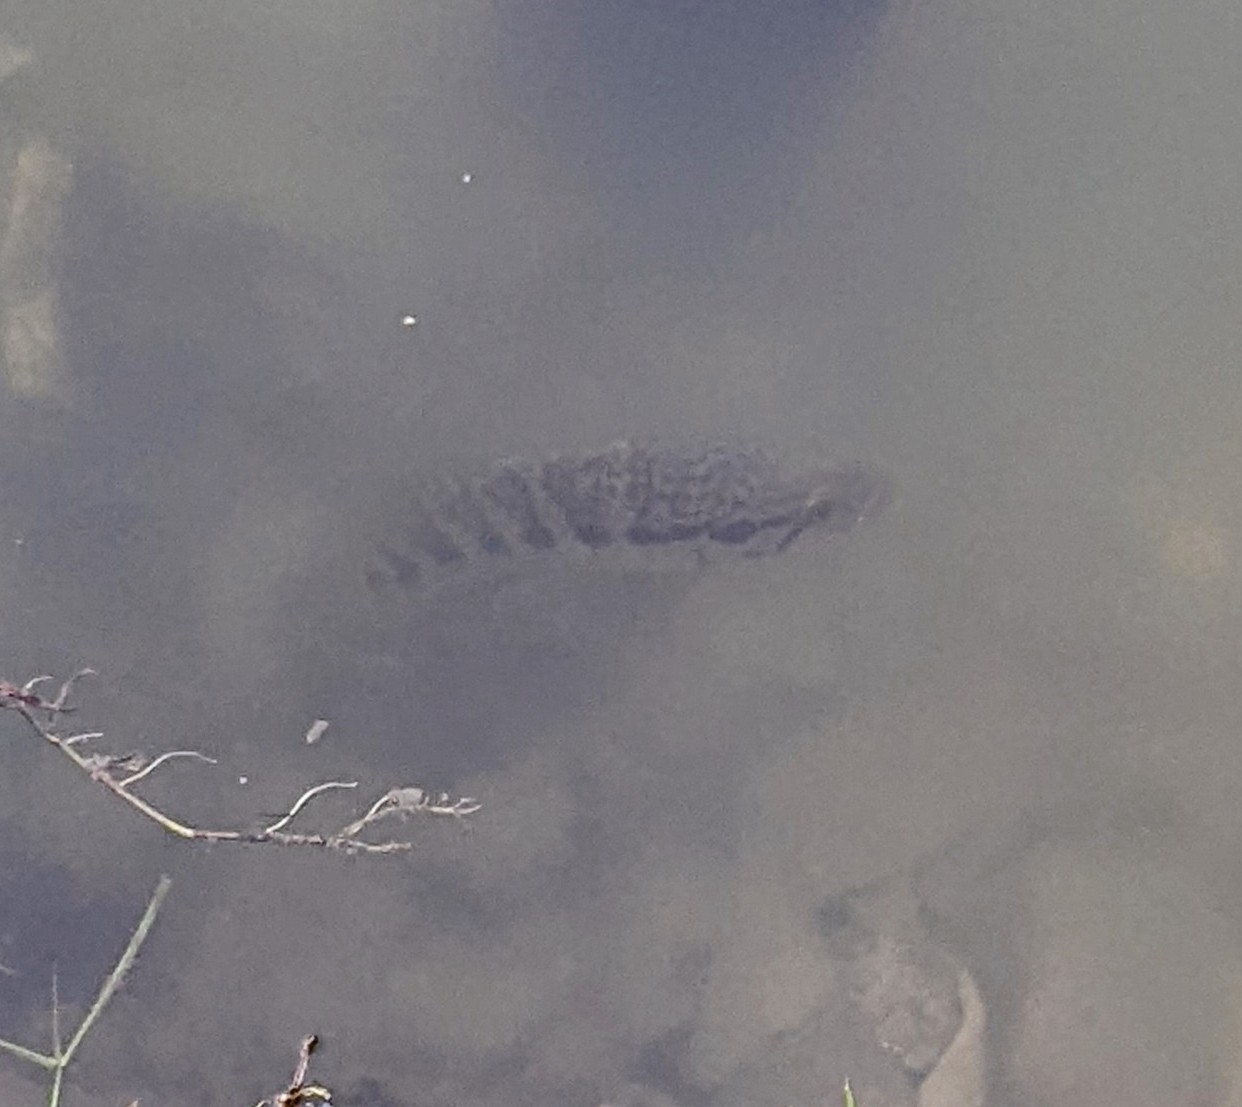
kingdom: Animalia
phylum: Chordata
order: Perciformes
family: Cichlidae
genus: Parachromis
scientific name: Parachromis managuensis
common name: Jaguar guapote
